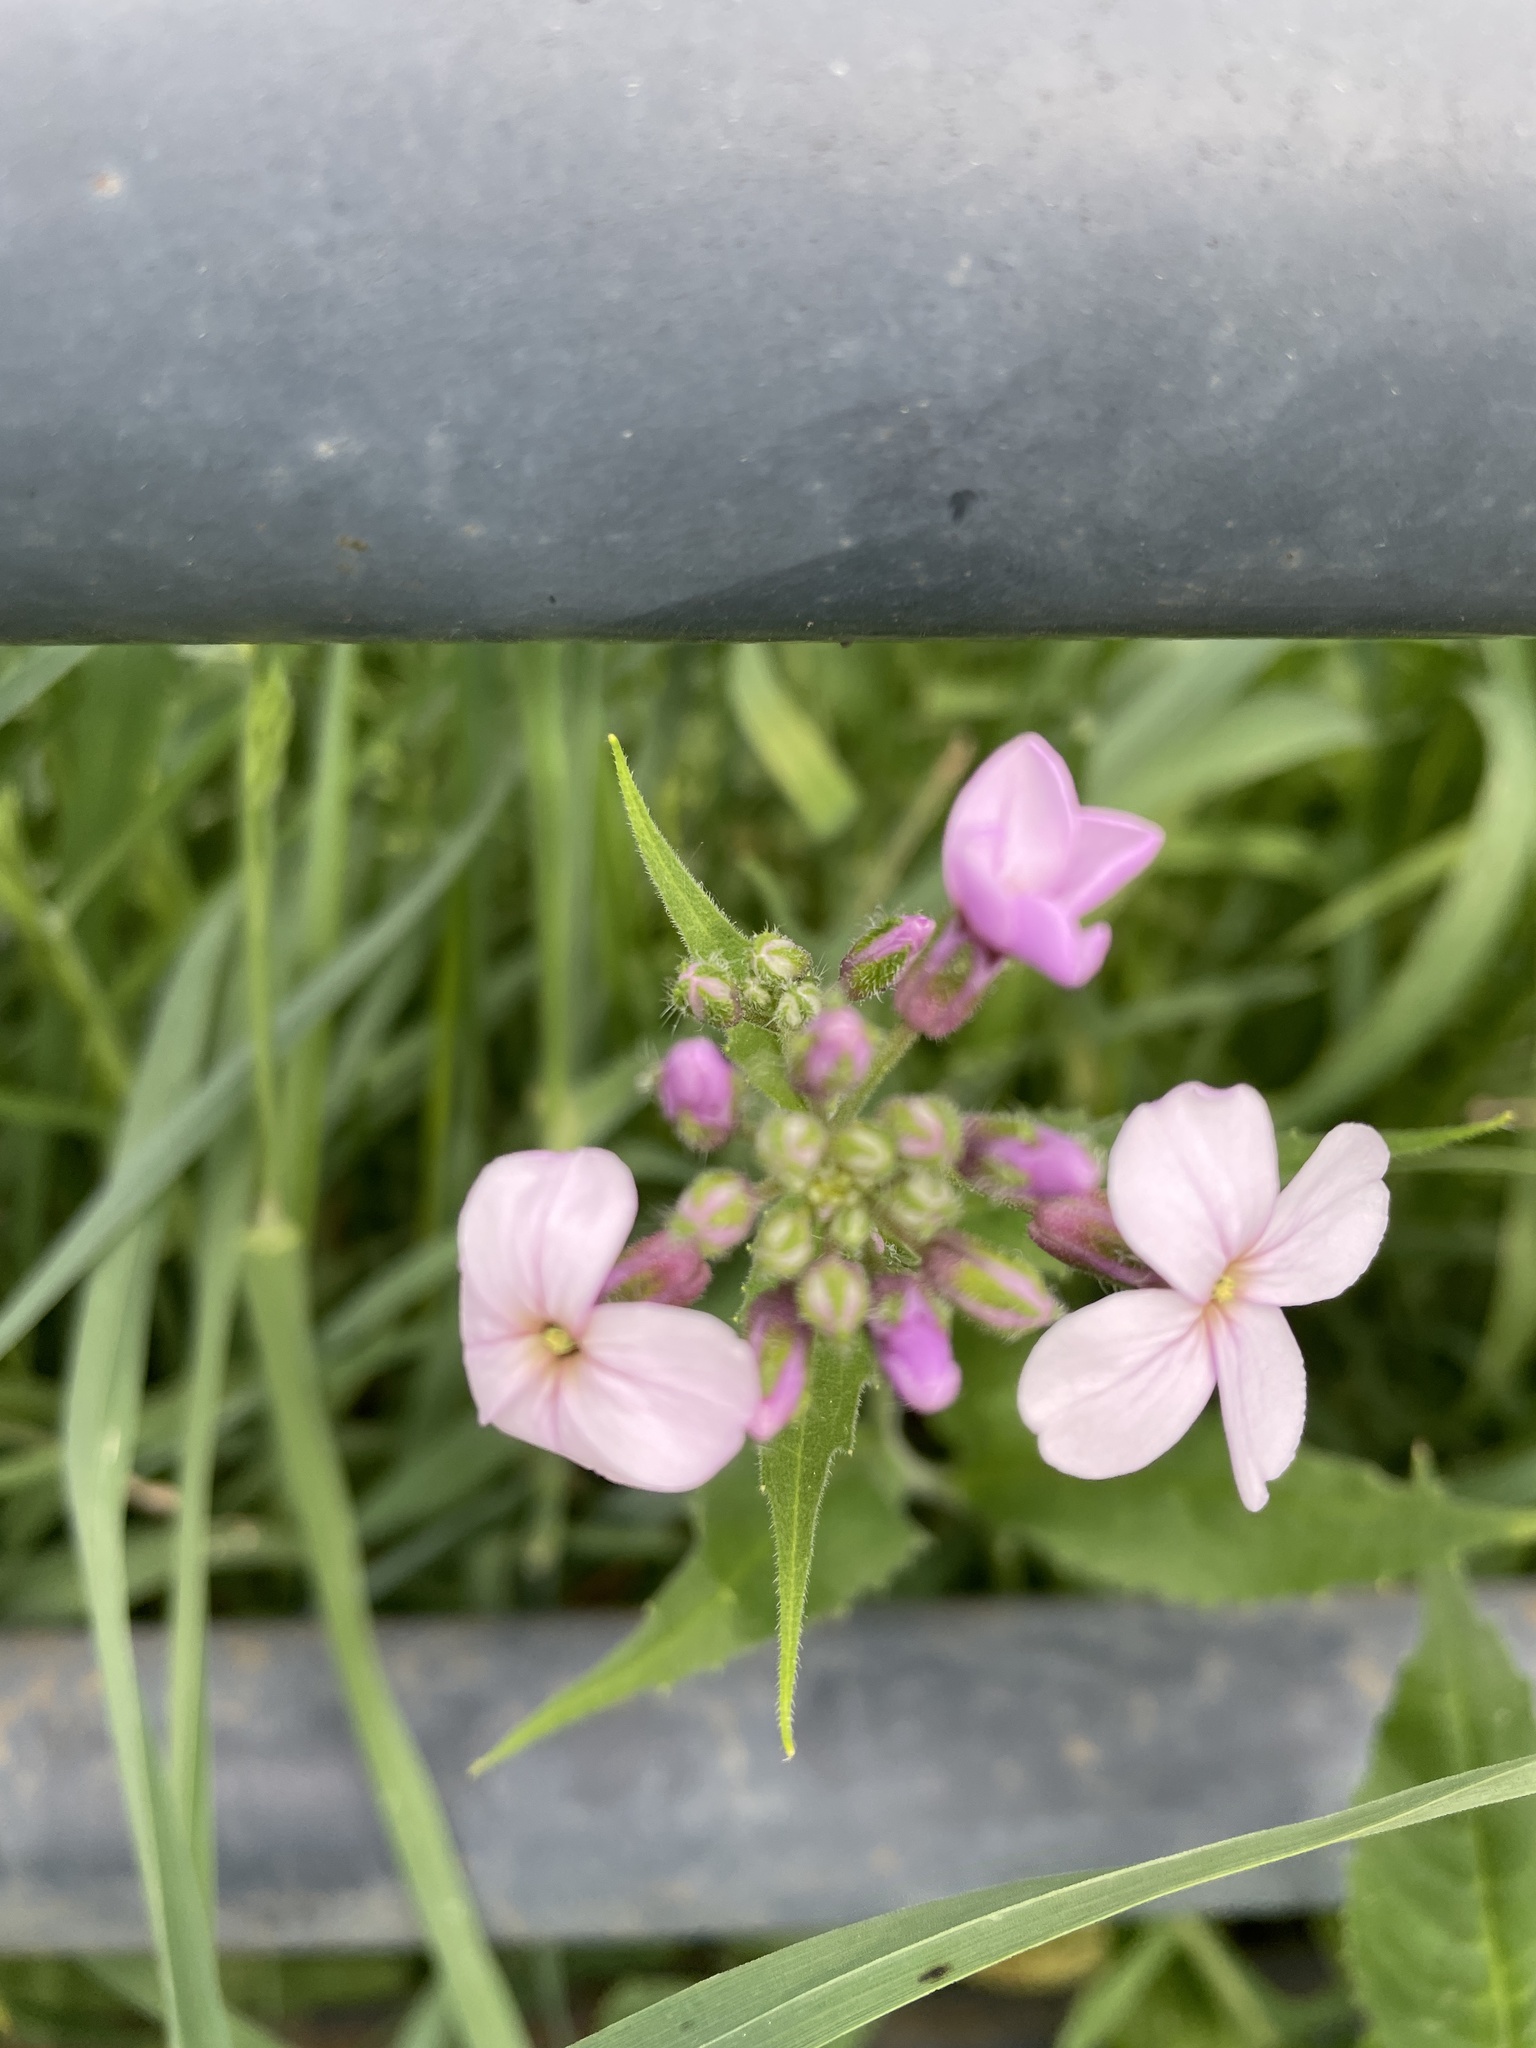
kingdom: Plantae
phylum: Tracheophyta
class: Magnoliopsida
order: Brassicales
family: Brassicaceae
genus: Hesperis
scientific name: Hesperis matronalis
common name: Dame's-violet
